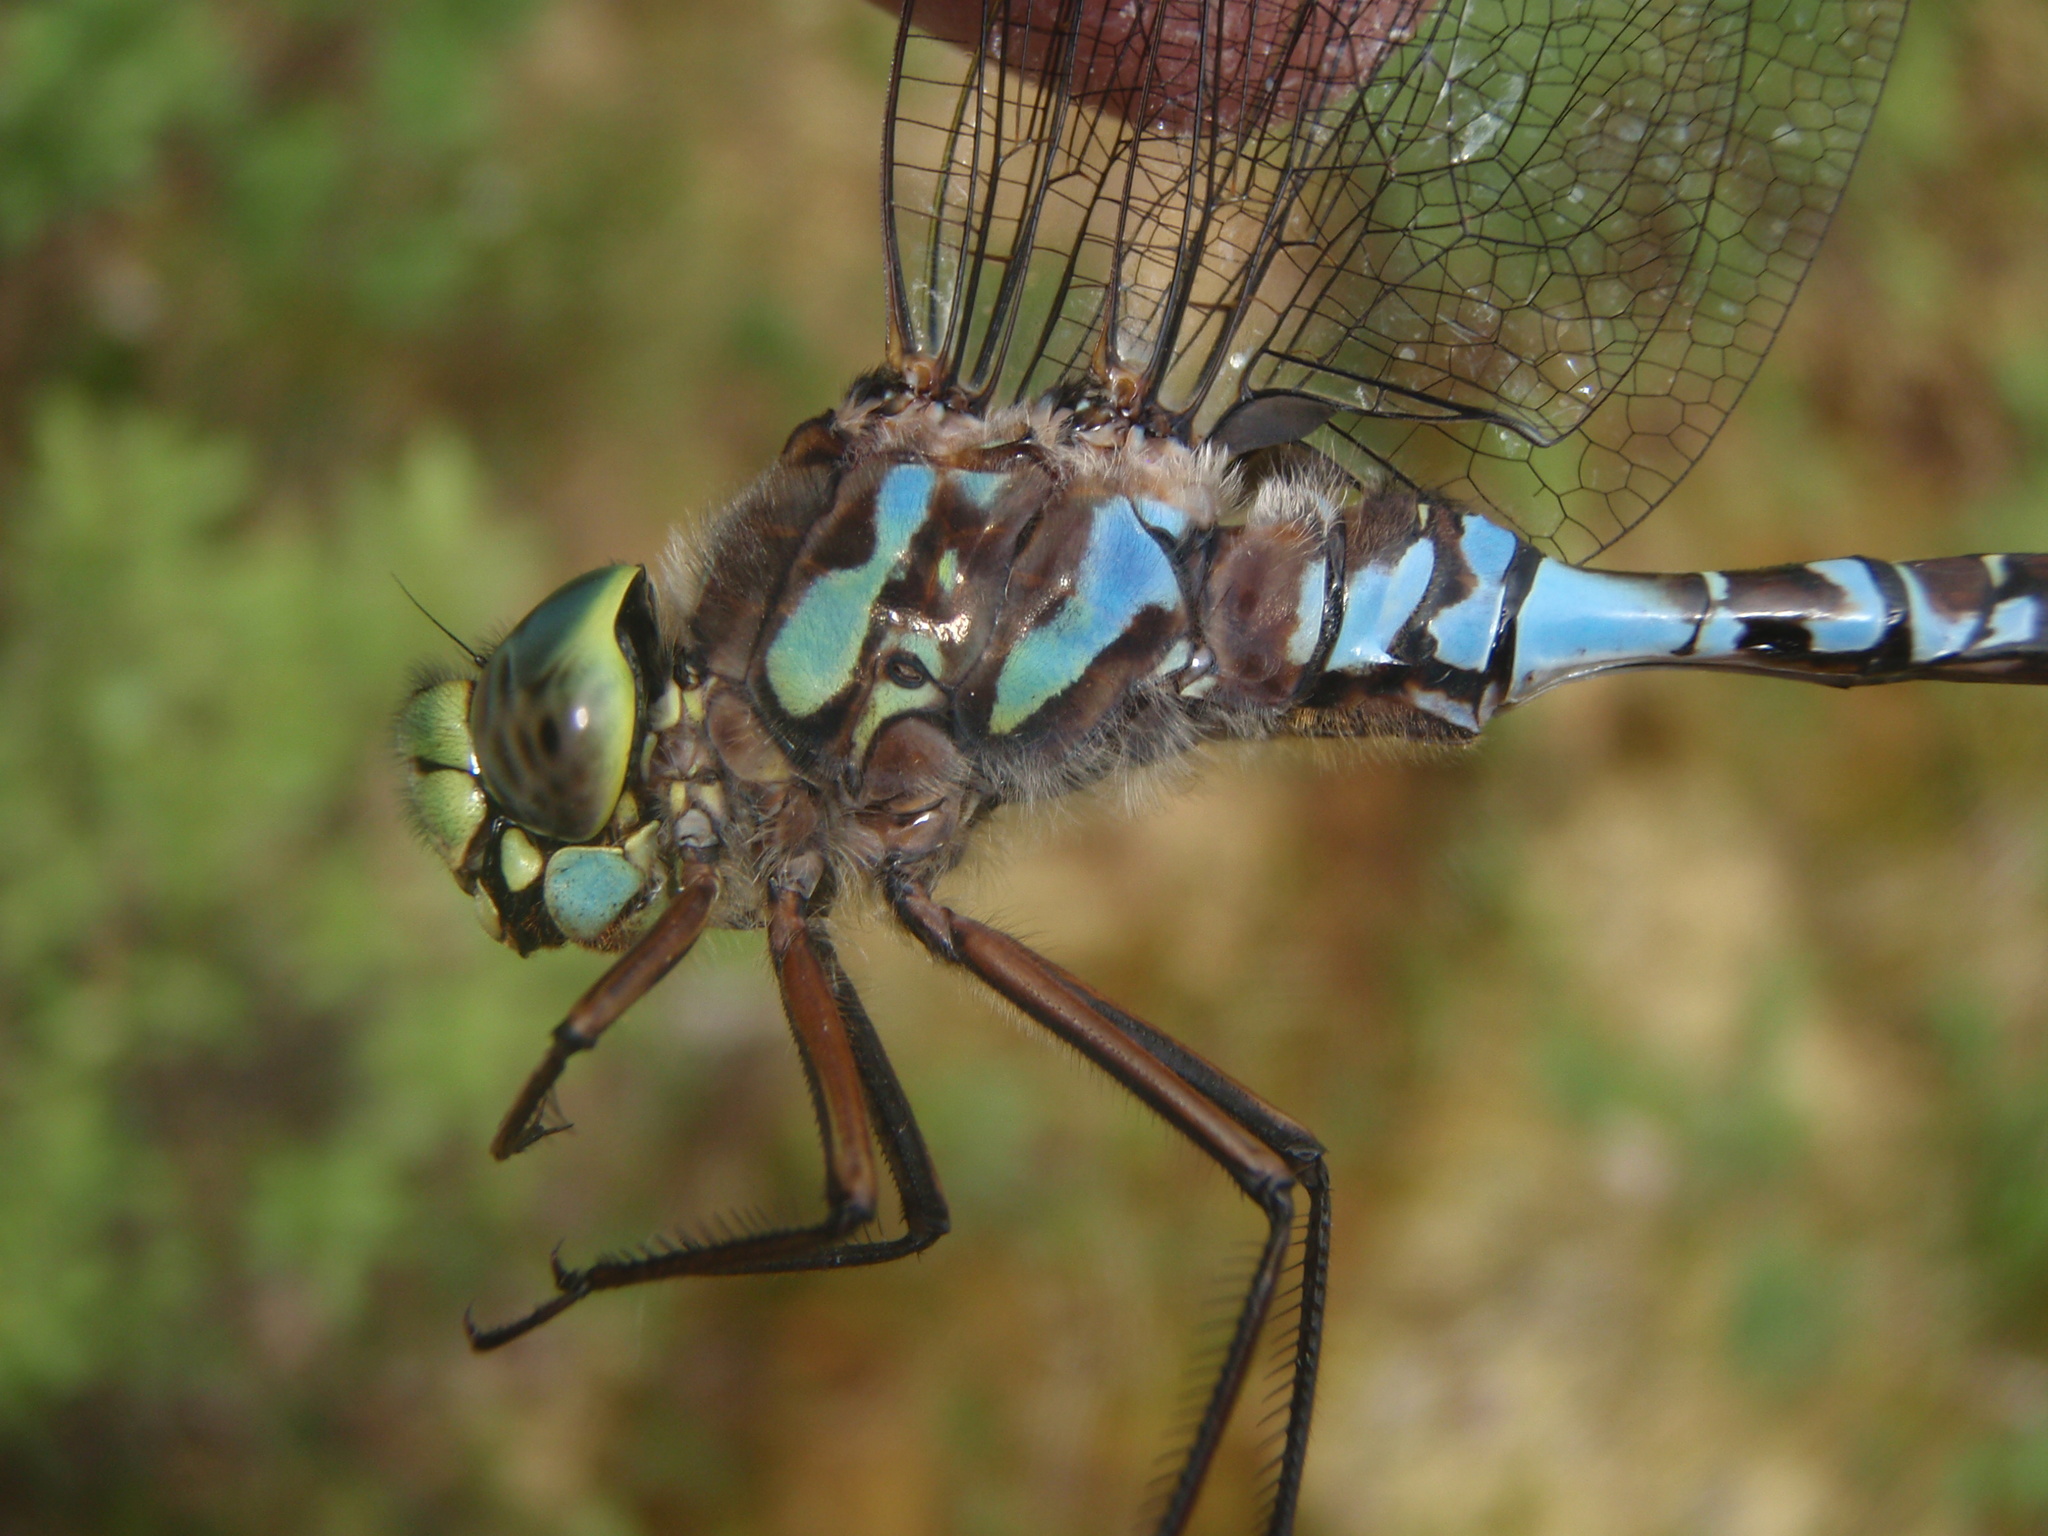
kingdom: Animalia
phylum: Arthropoda
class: Insecta
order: Odonata
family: Aeshnidae
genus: Aeshna
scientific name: Aeshna eremita
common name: Lake darner
